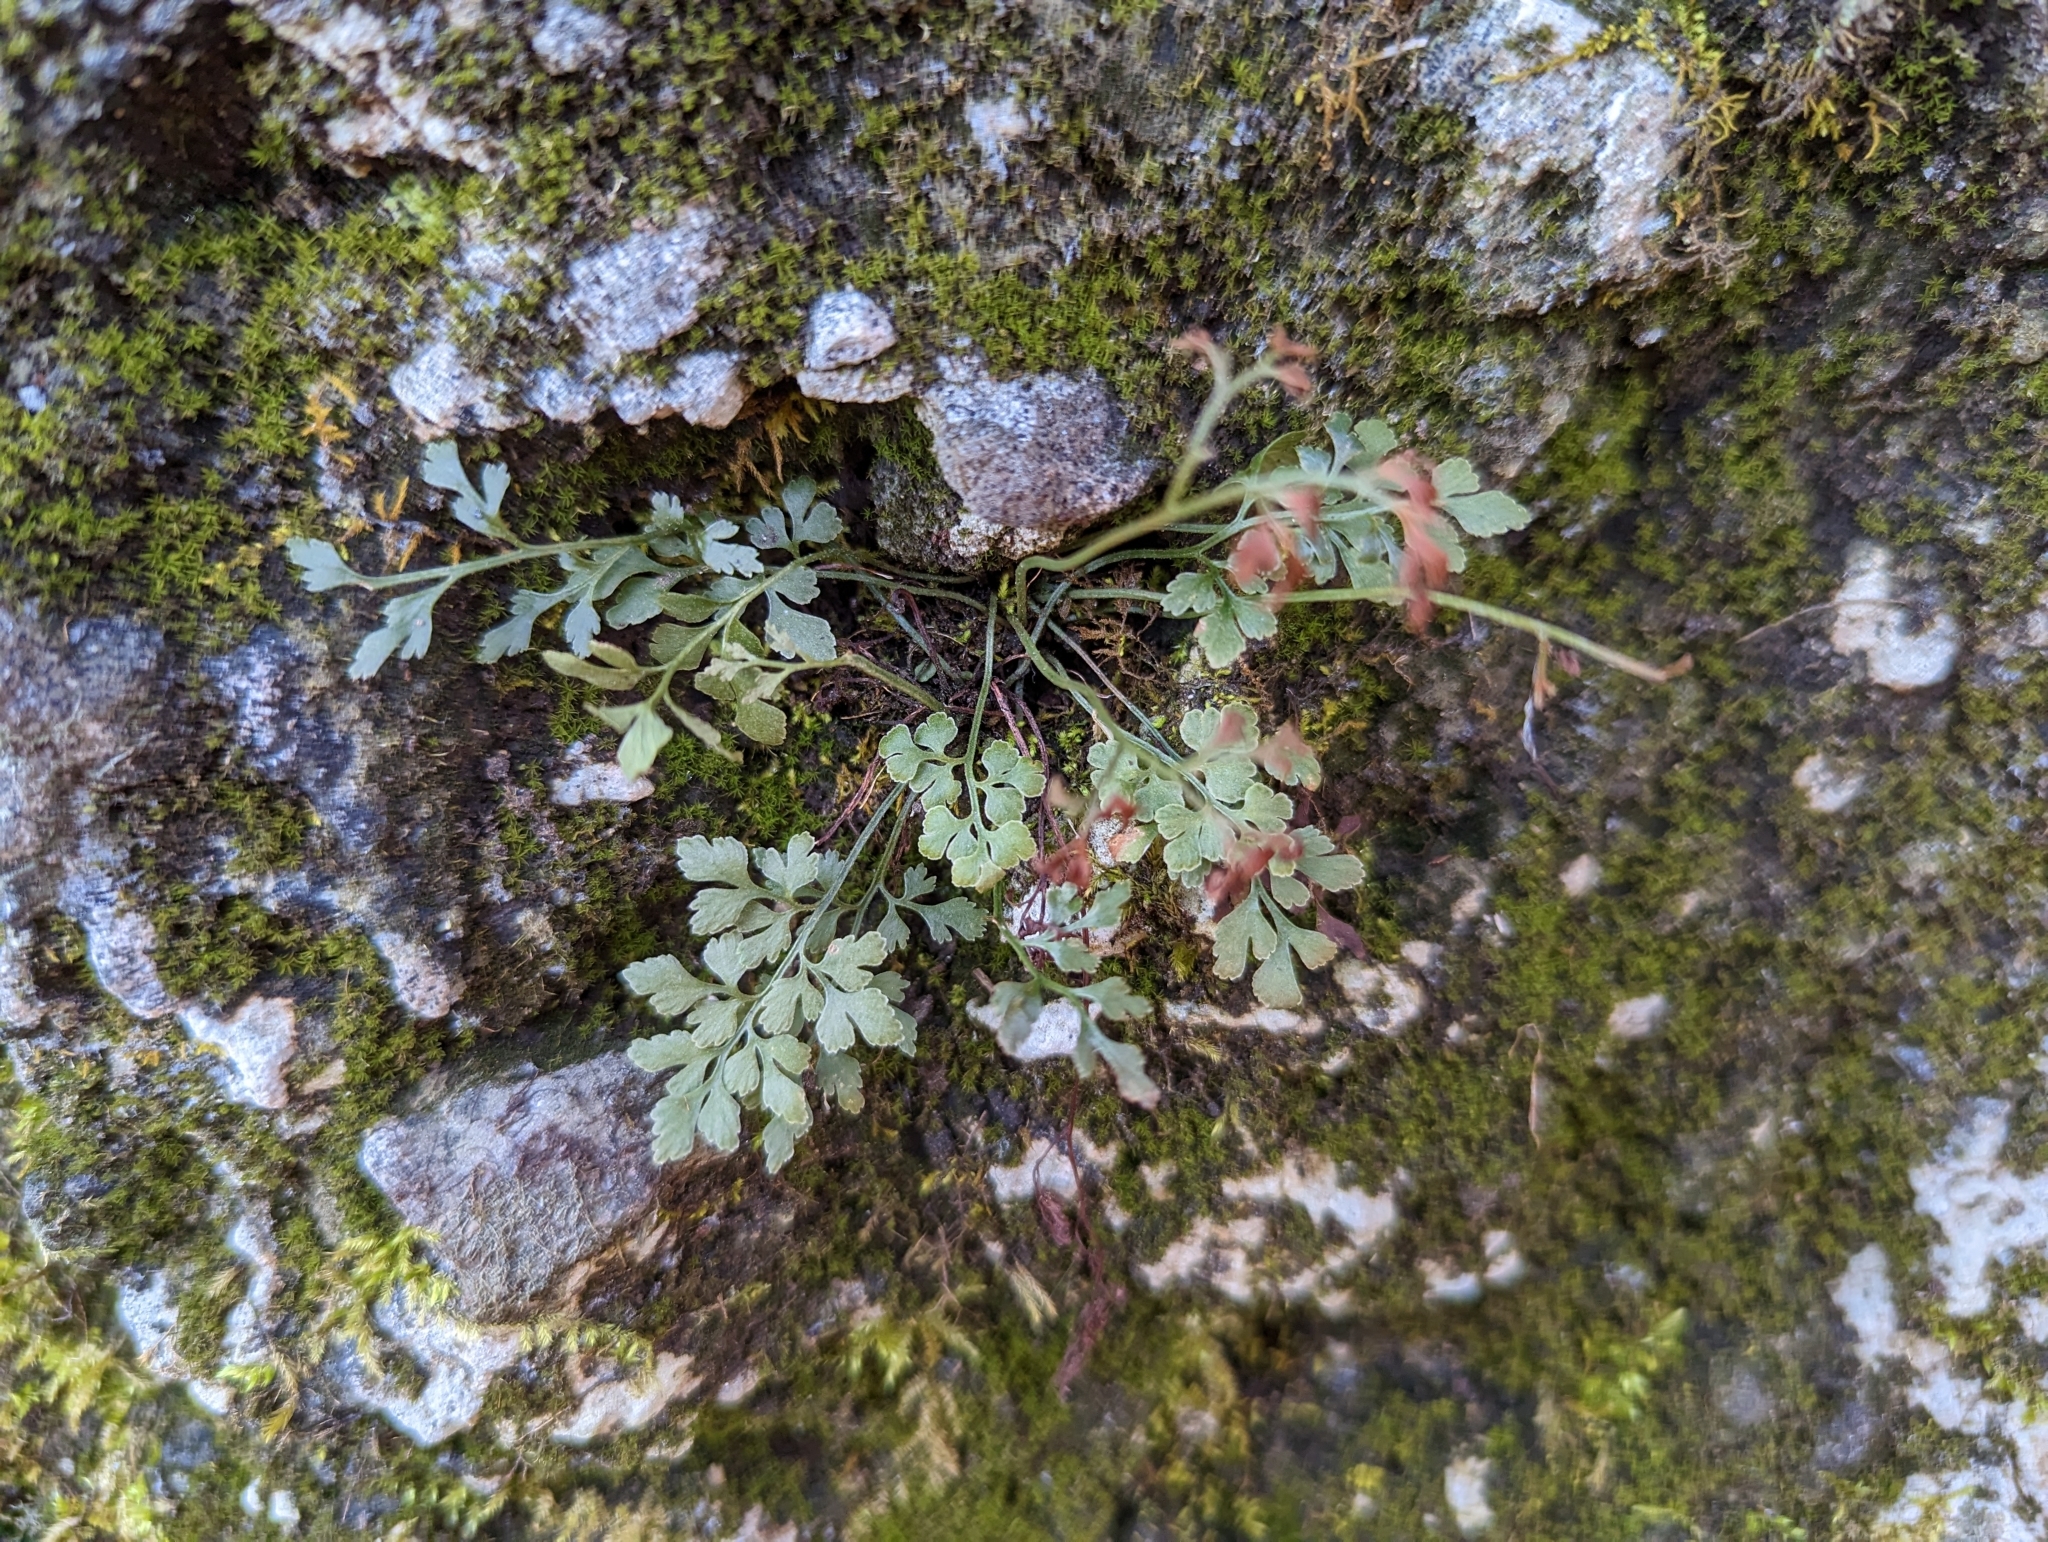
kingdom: Plantae
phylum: Tracheophyta
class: Polypodiopsida
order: Polypodiales
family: Aspleniaceae
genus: Asplenium
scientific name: Asplenium ruta-muraria
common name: Wall-rue
